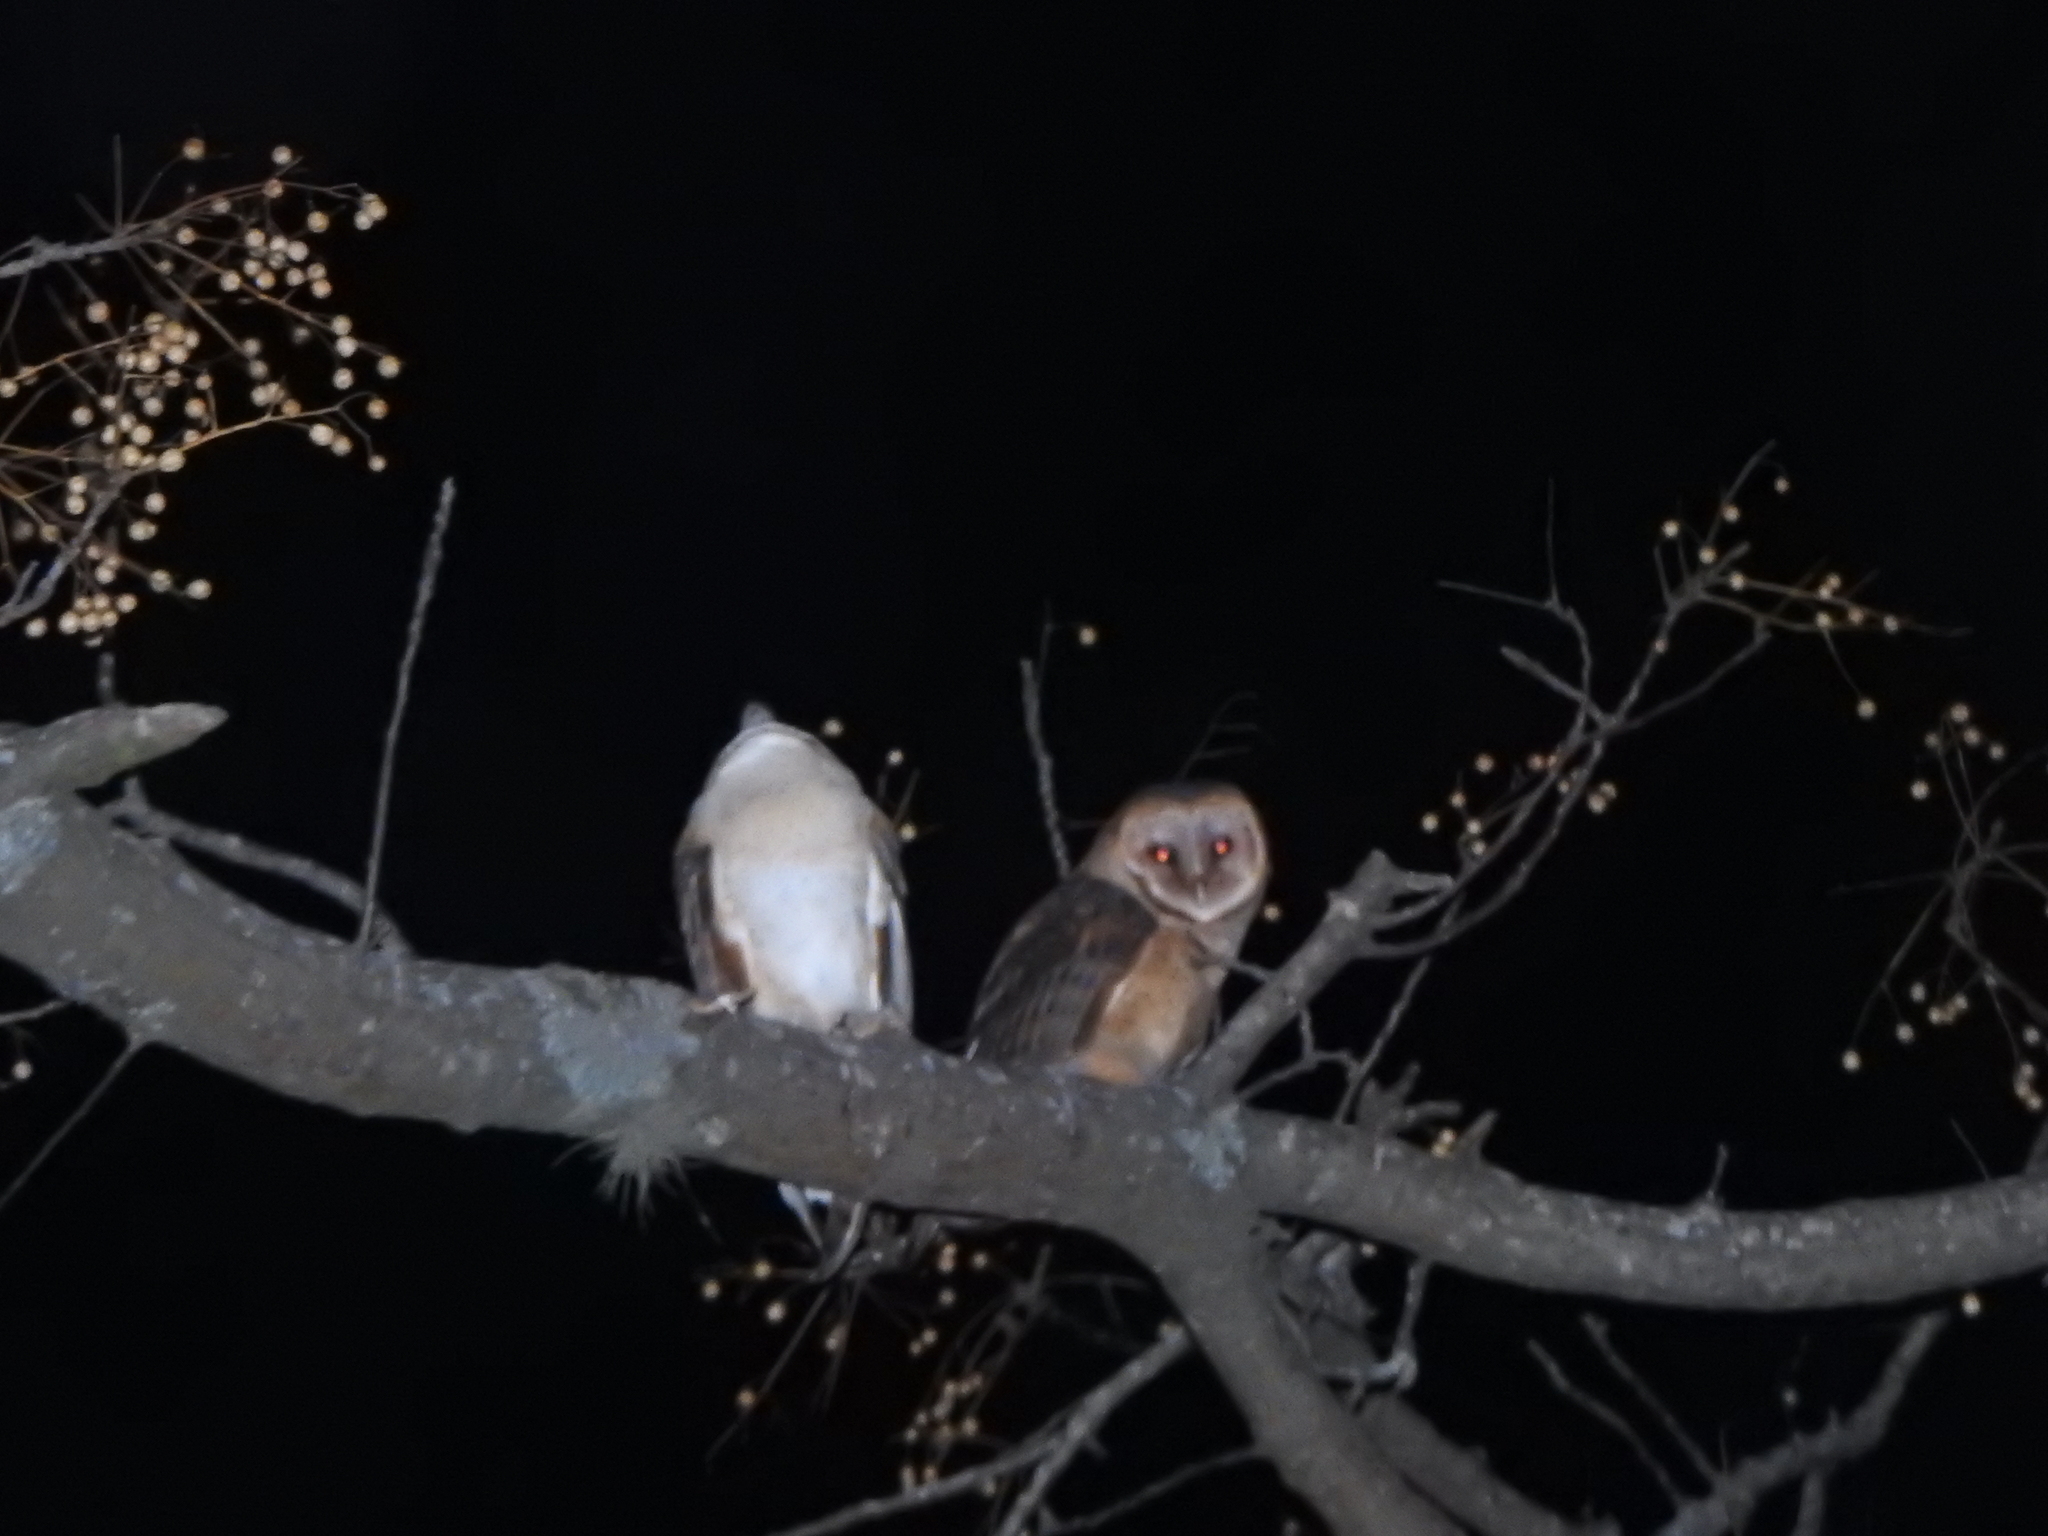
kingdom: Animalia
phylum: Chordata
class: Aves
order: Strigiformes
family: Tytonidae
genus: Tyto
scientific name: Tyto alba
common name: Barn owl
